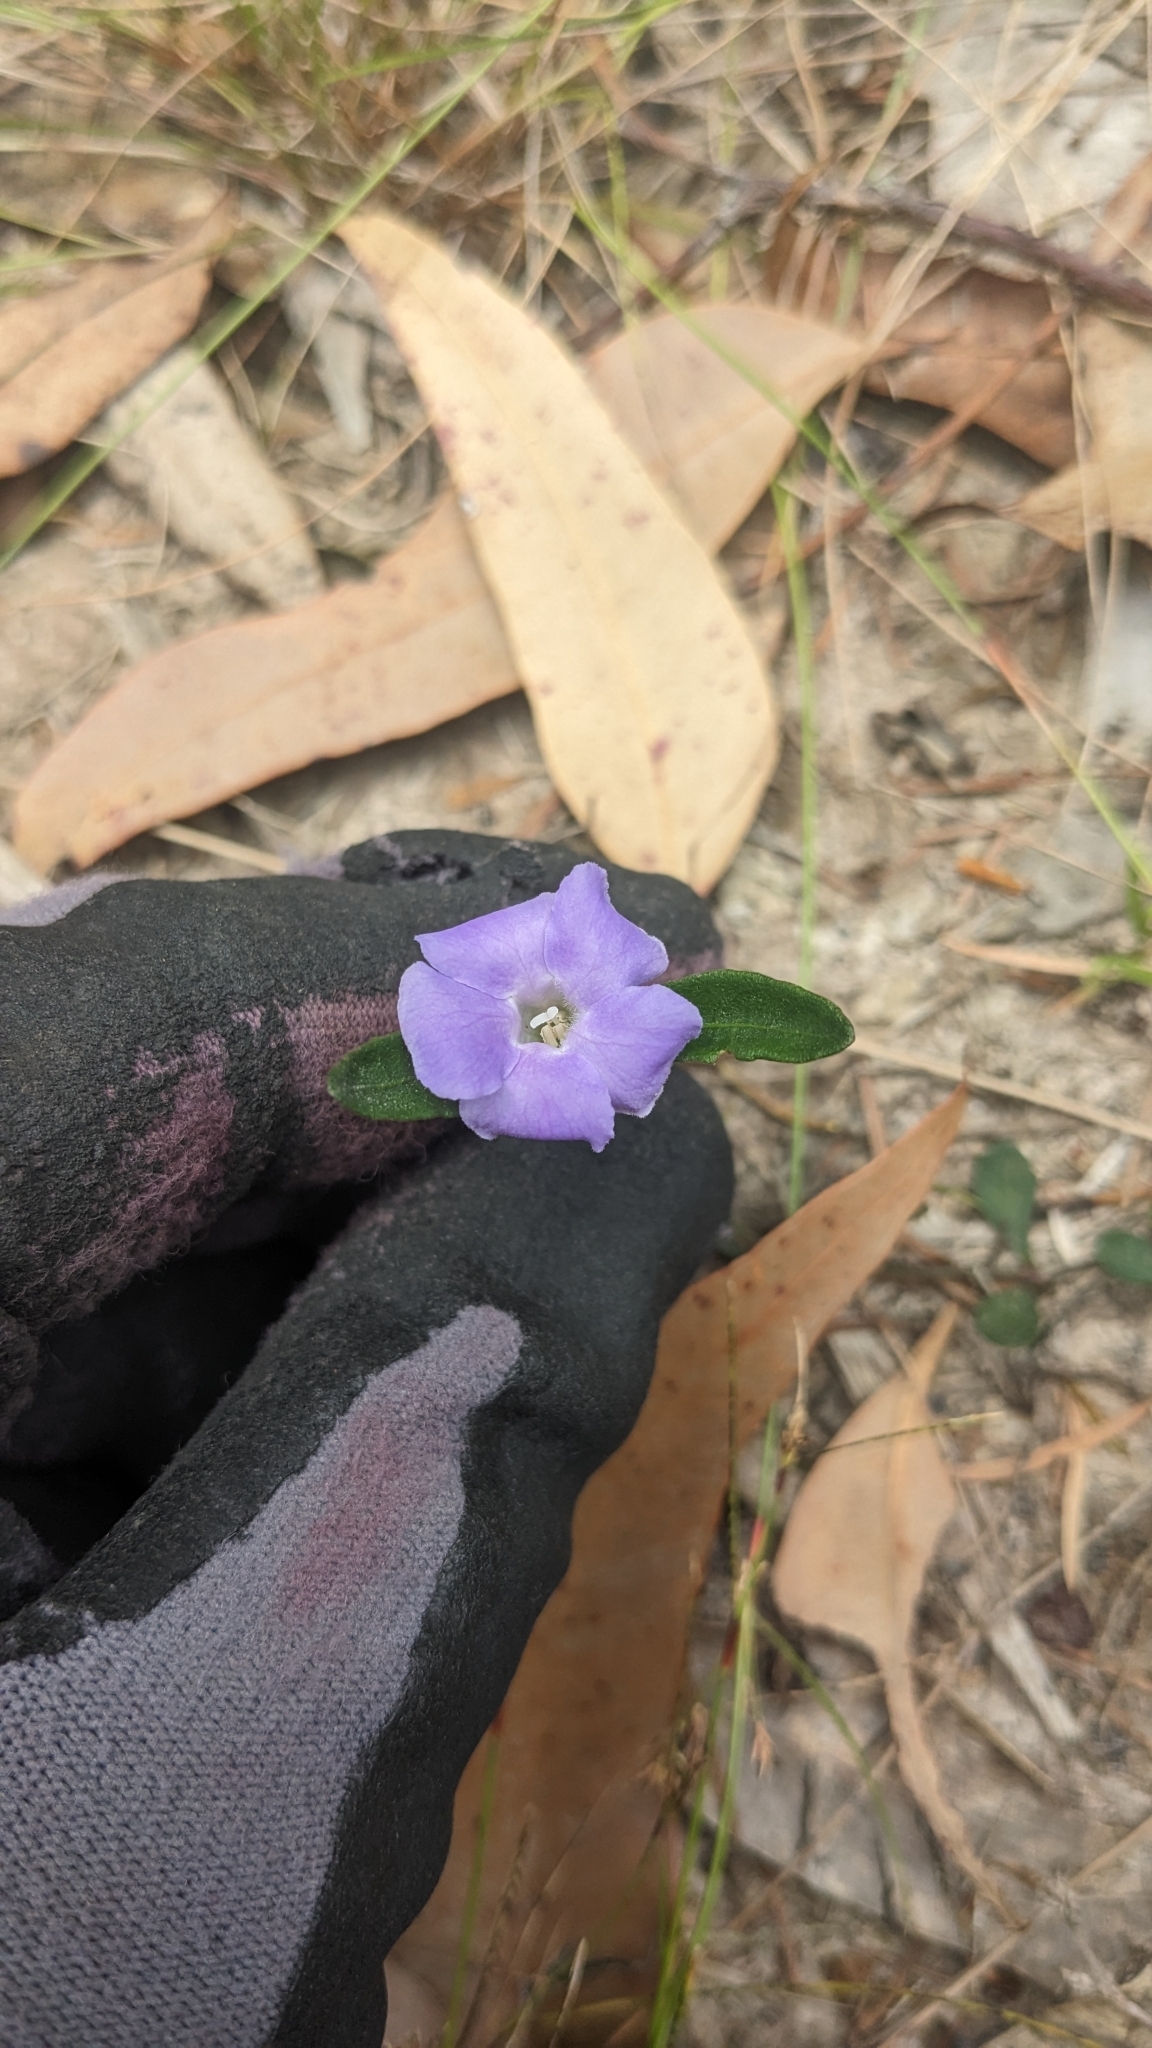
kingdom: Plantae
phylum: Tracheophyta
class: Magnoliopsida
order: Lamiales
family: Acanthaceae
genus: Brunoniella
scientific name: Brunoniella australis
